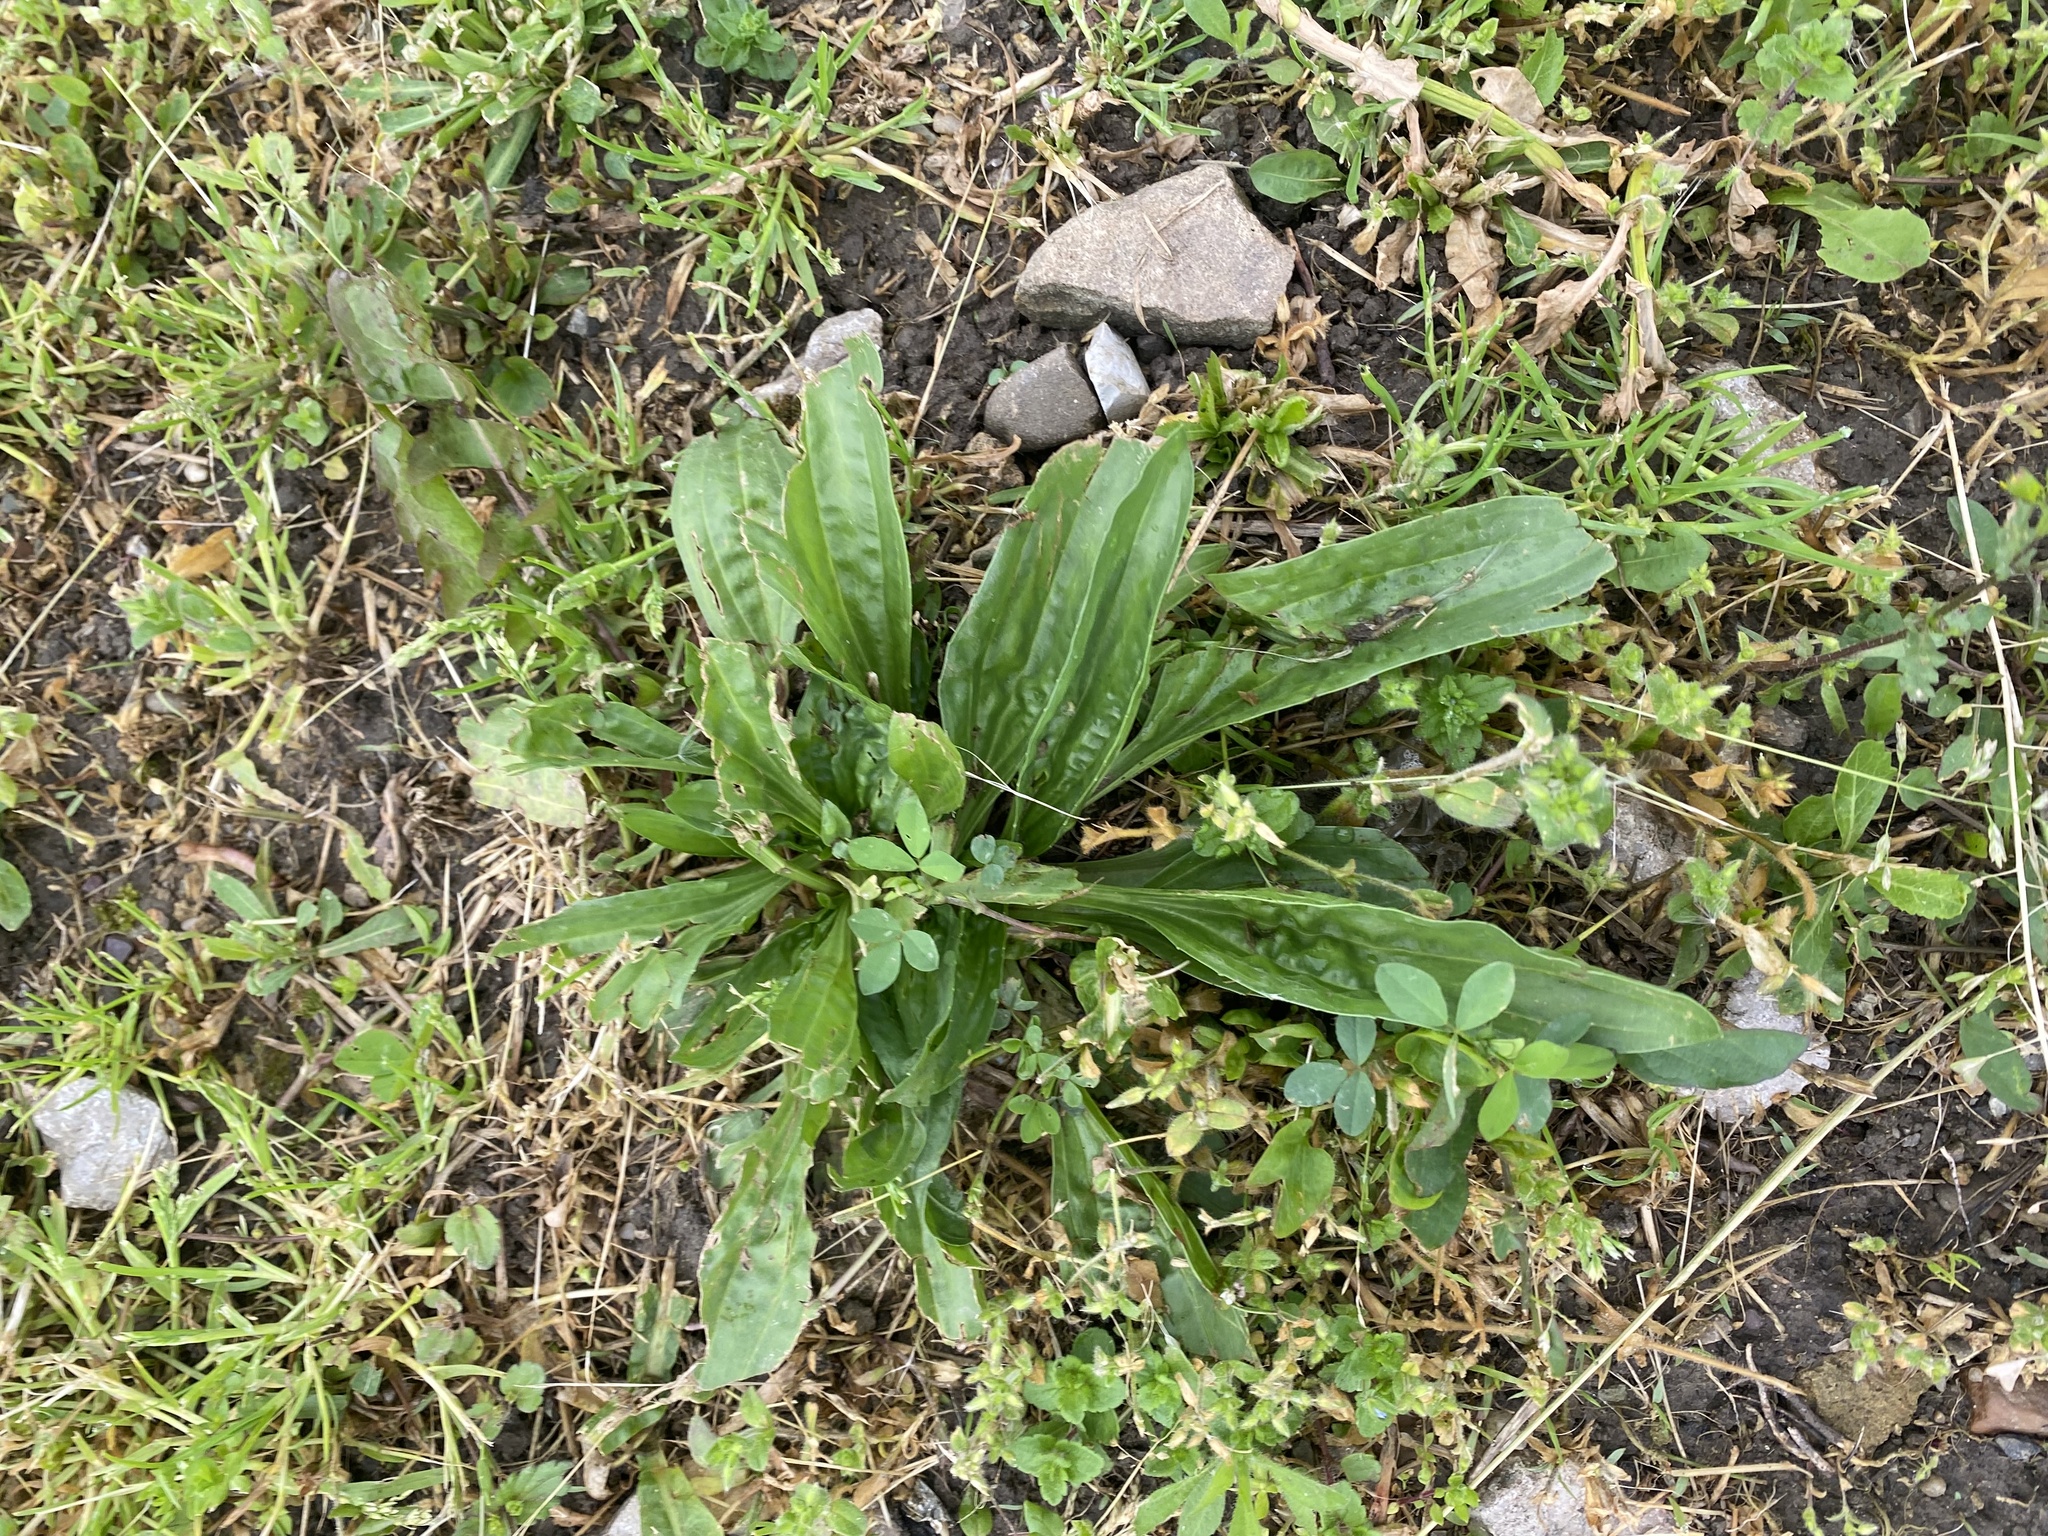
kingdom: Plantae
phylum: Tracheophyta
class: Magnoliopsida
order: Lamiales
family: Plantaginaceae
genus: Plantago
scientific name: Plantago lanceolata
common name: Ribwort plantain
